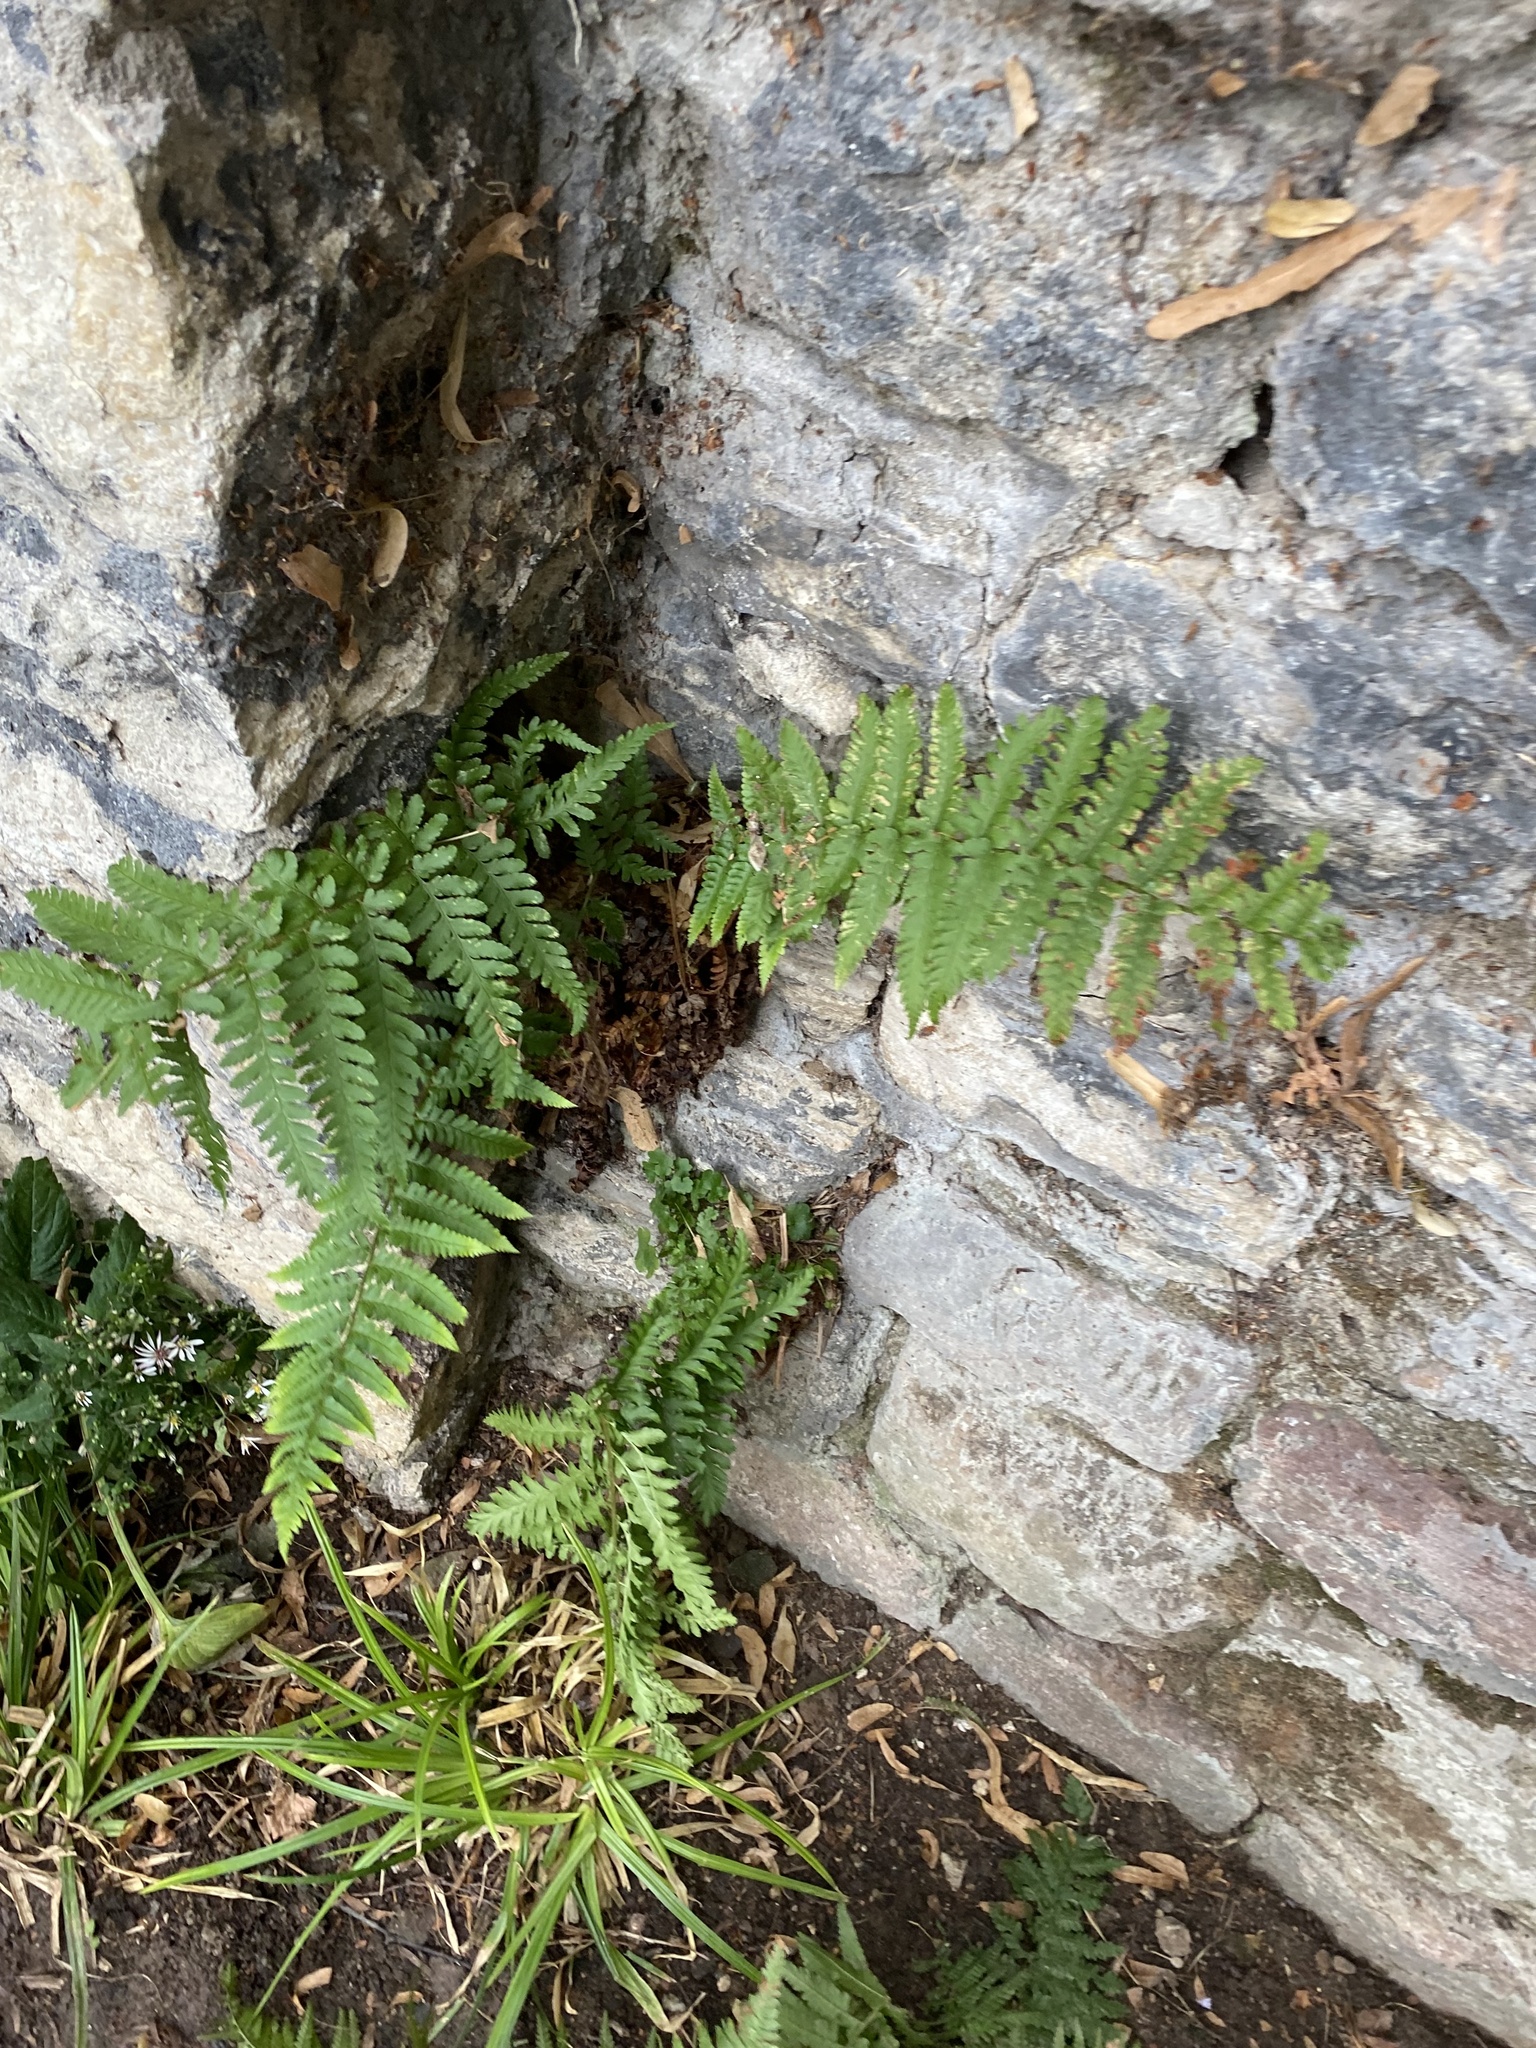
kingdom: Plantae
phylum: Tracheophyta
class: Polypodiopsida
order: Polypodiales
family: Dryopteridaceae
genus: Dryopteris
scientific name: Dryopteris filix-mas
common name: Male fern
